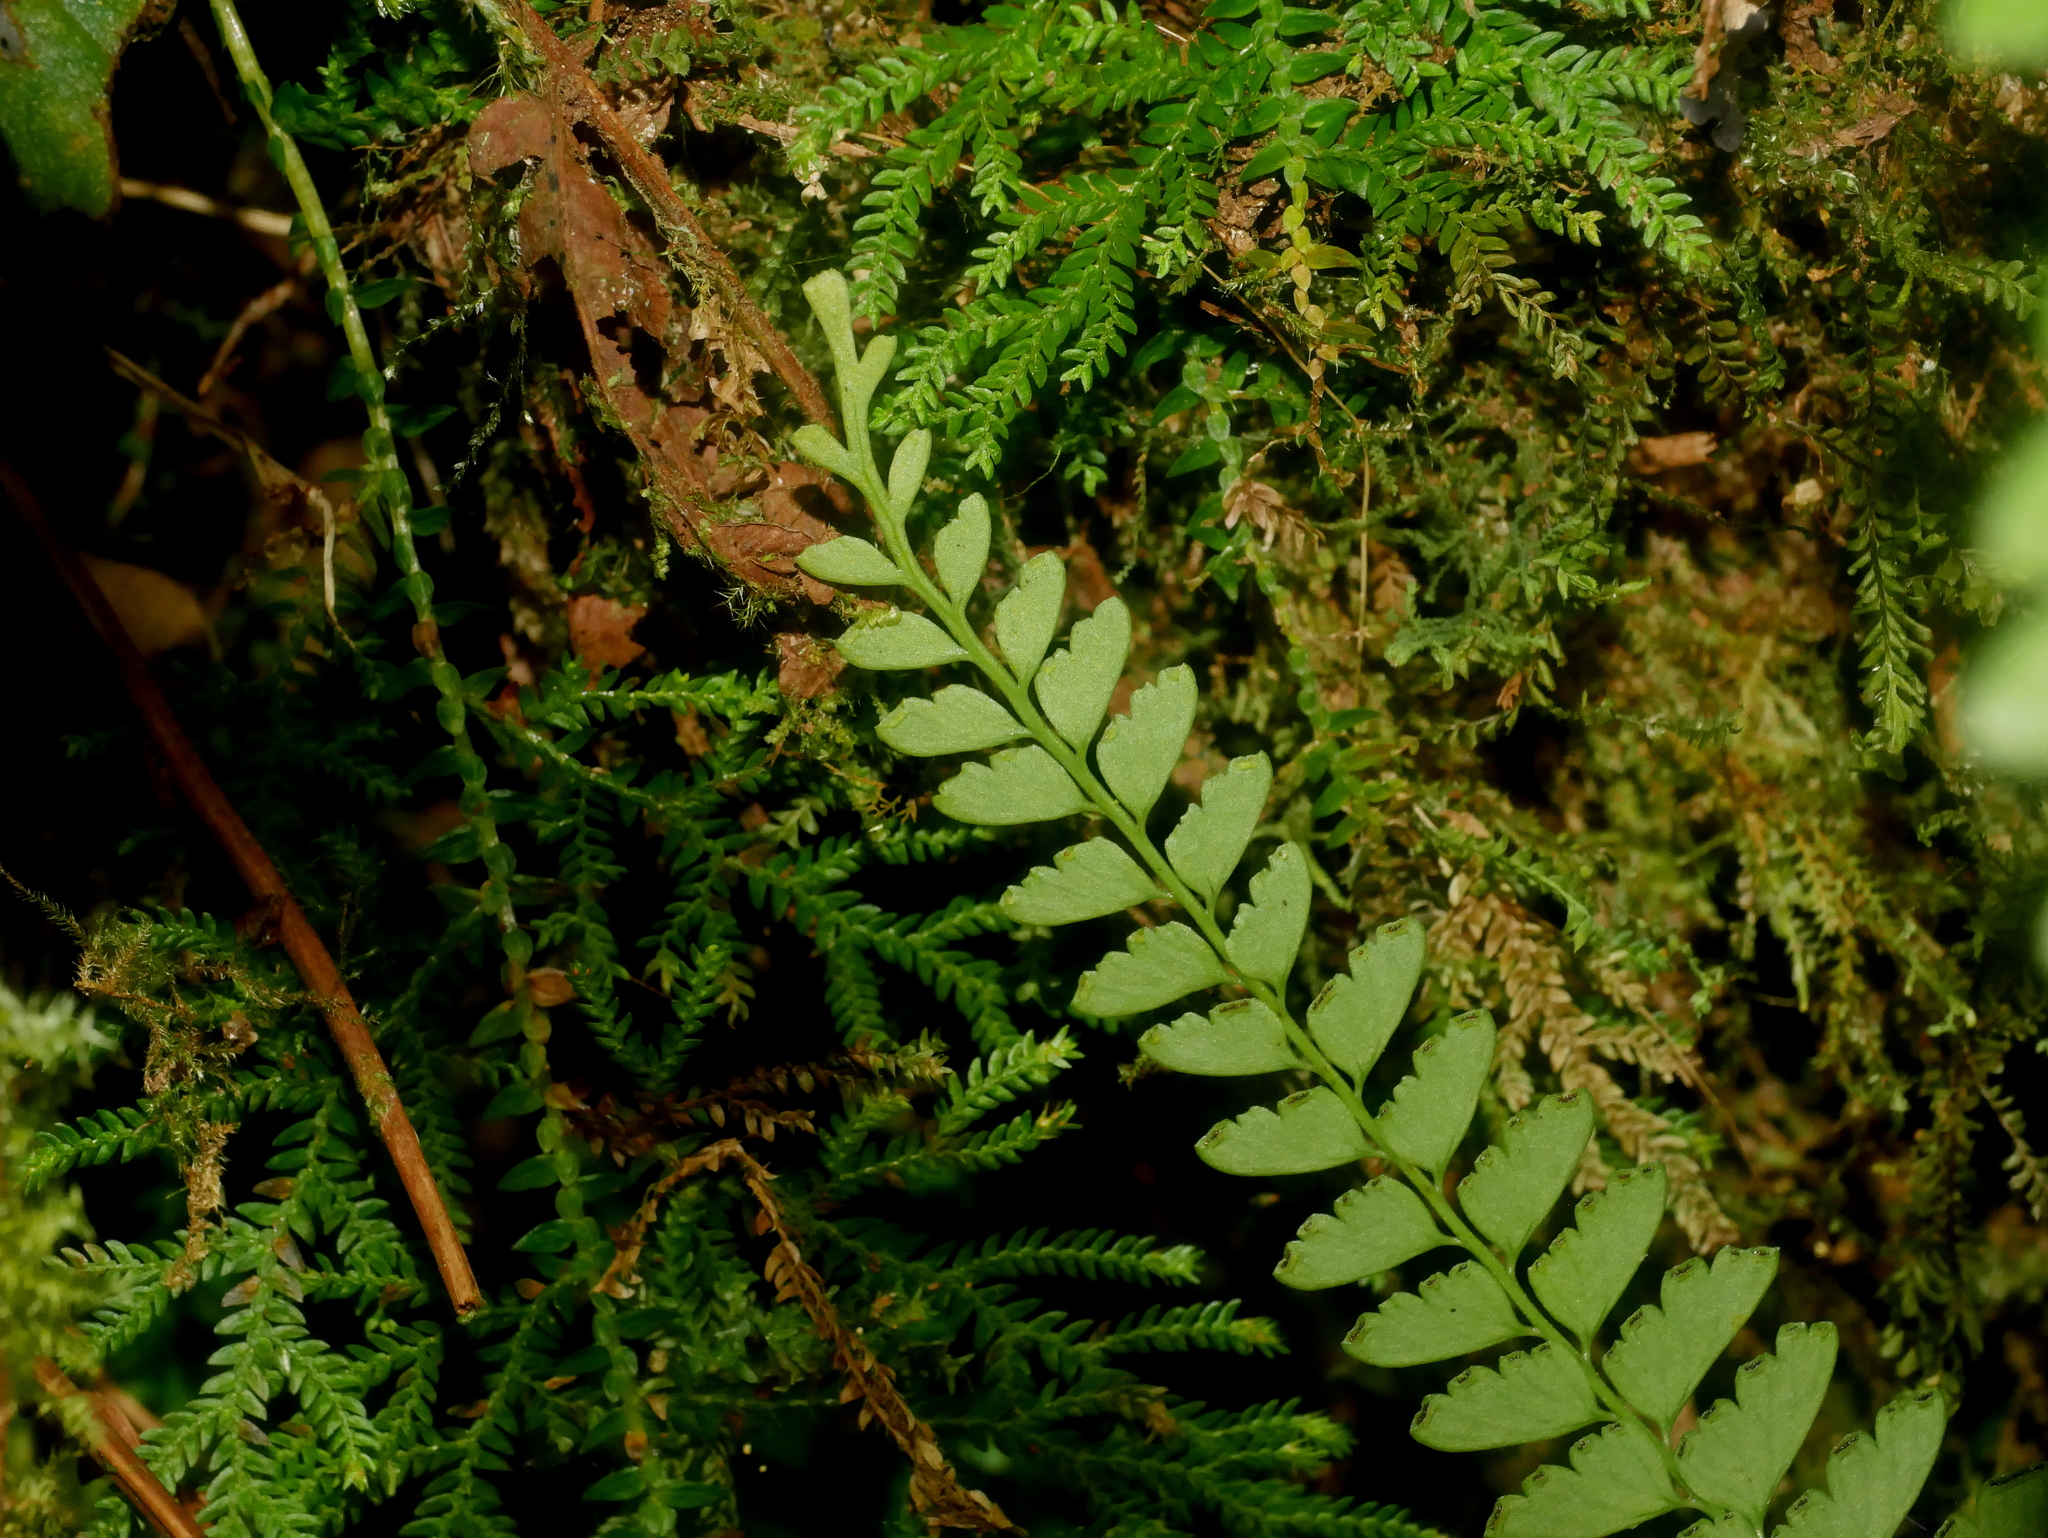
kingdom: Plantae
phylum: Tracheophyta
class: Polypodiopsida
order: Polypodiales
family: Lindsaeaceae
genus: Osmolindsaea
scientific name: Osmolindsaea odorata
